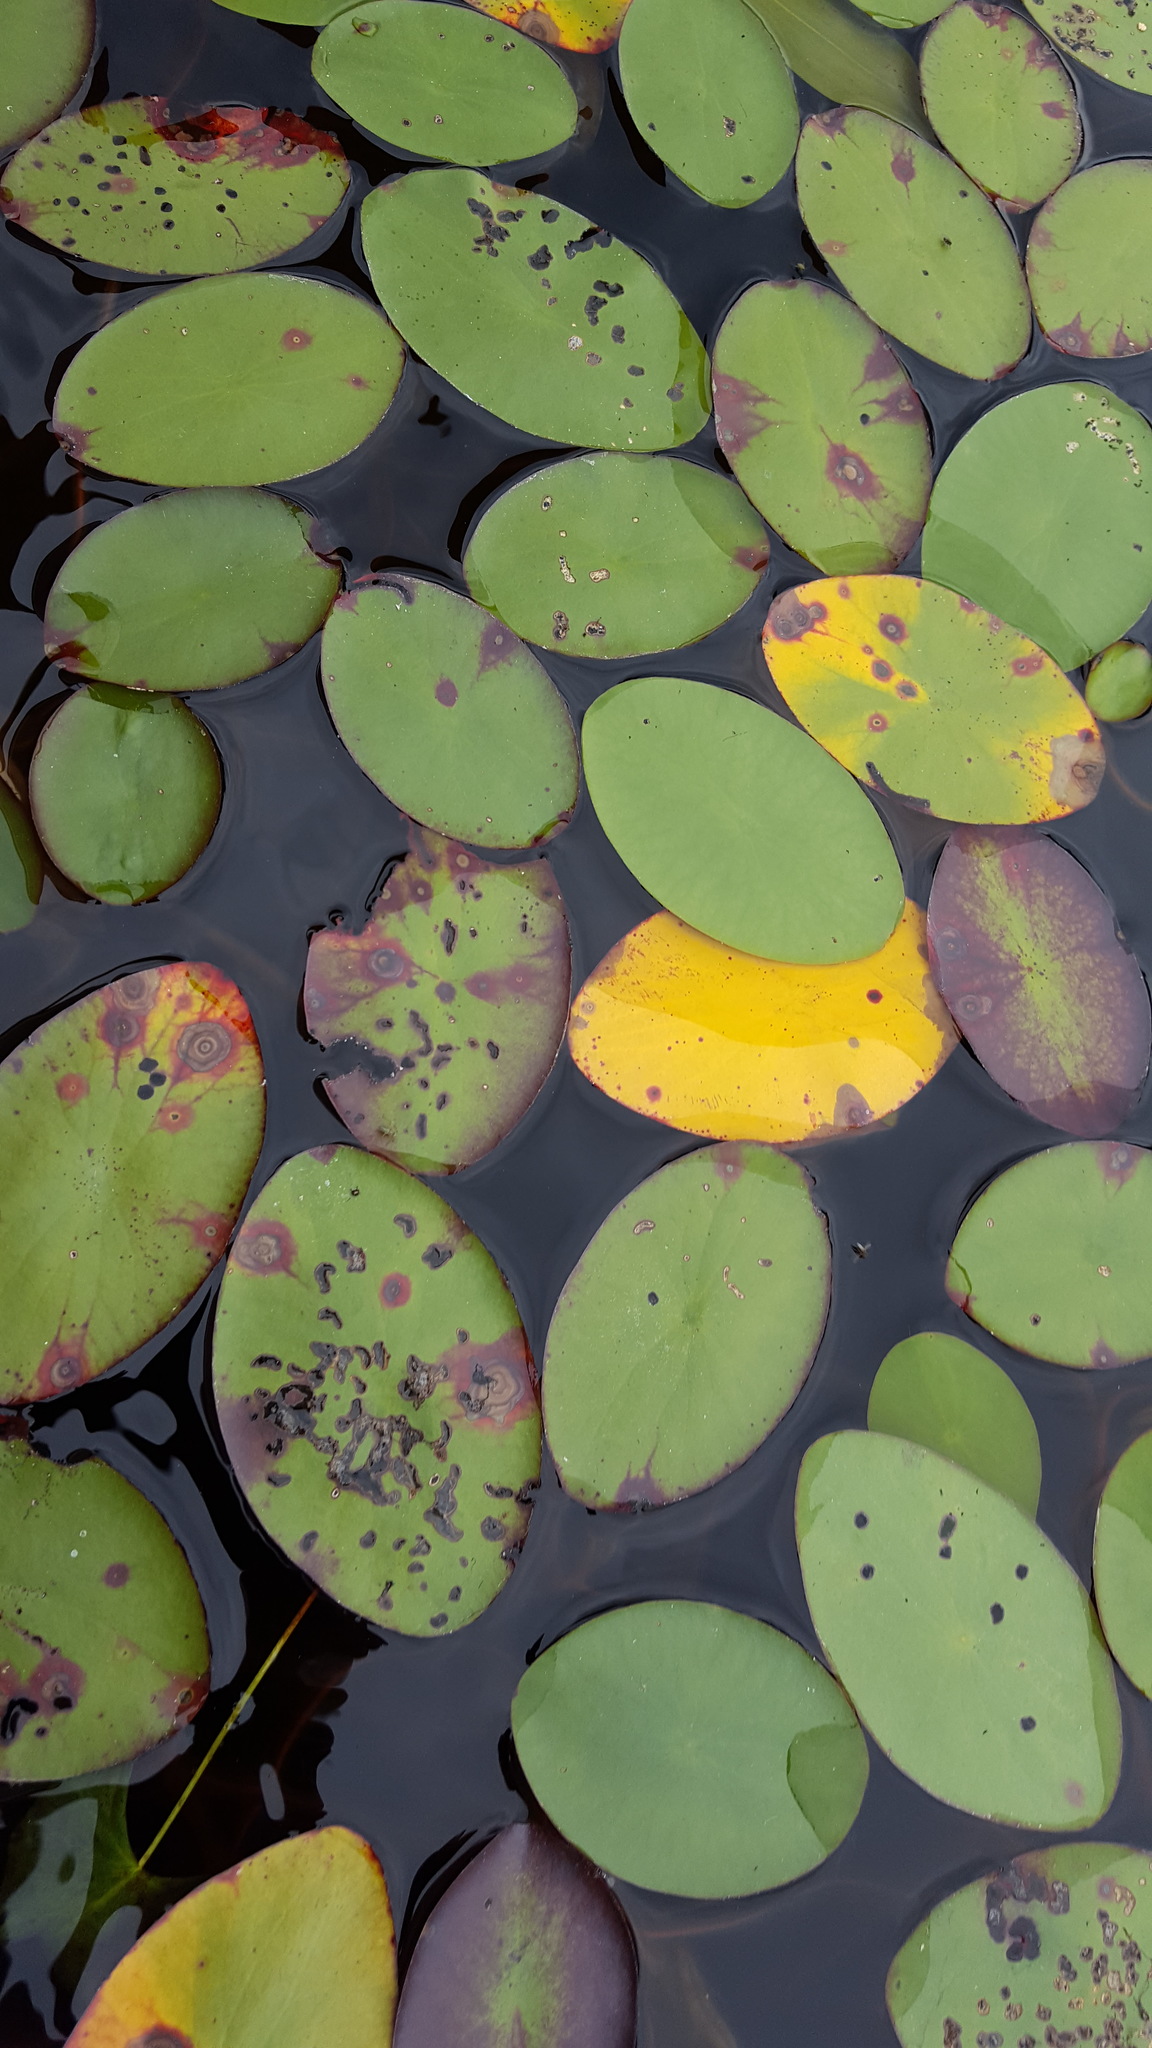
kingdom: Plantae
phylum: Tracheophyta
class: Magnoliopsida
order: Nymphaeales
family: Cabombaceae
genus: Brasenia
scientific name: Brasenia schreberi
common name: Water-shield
